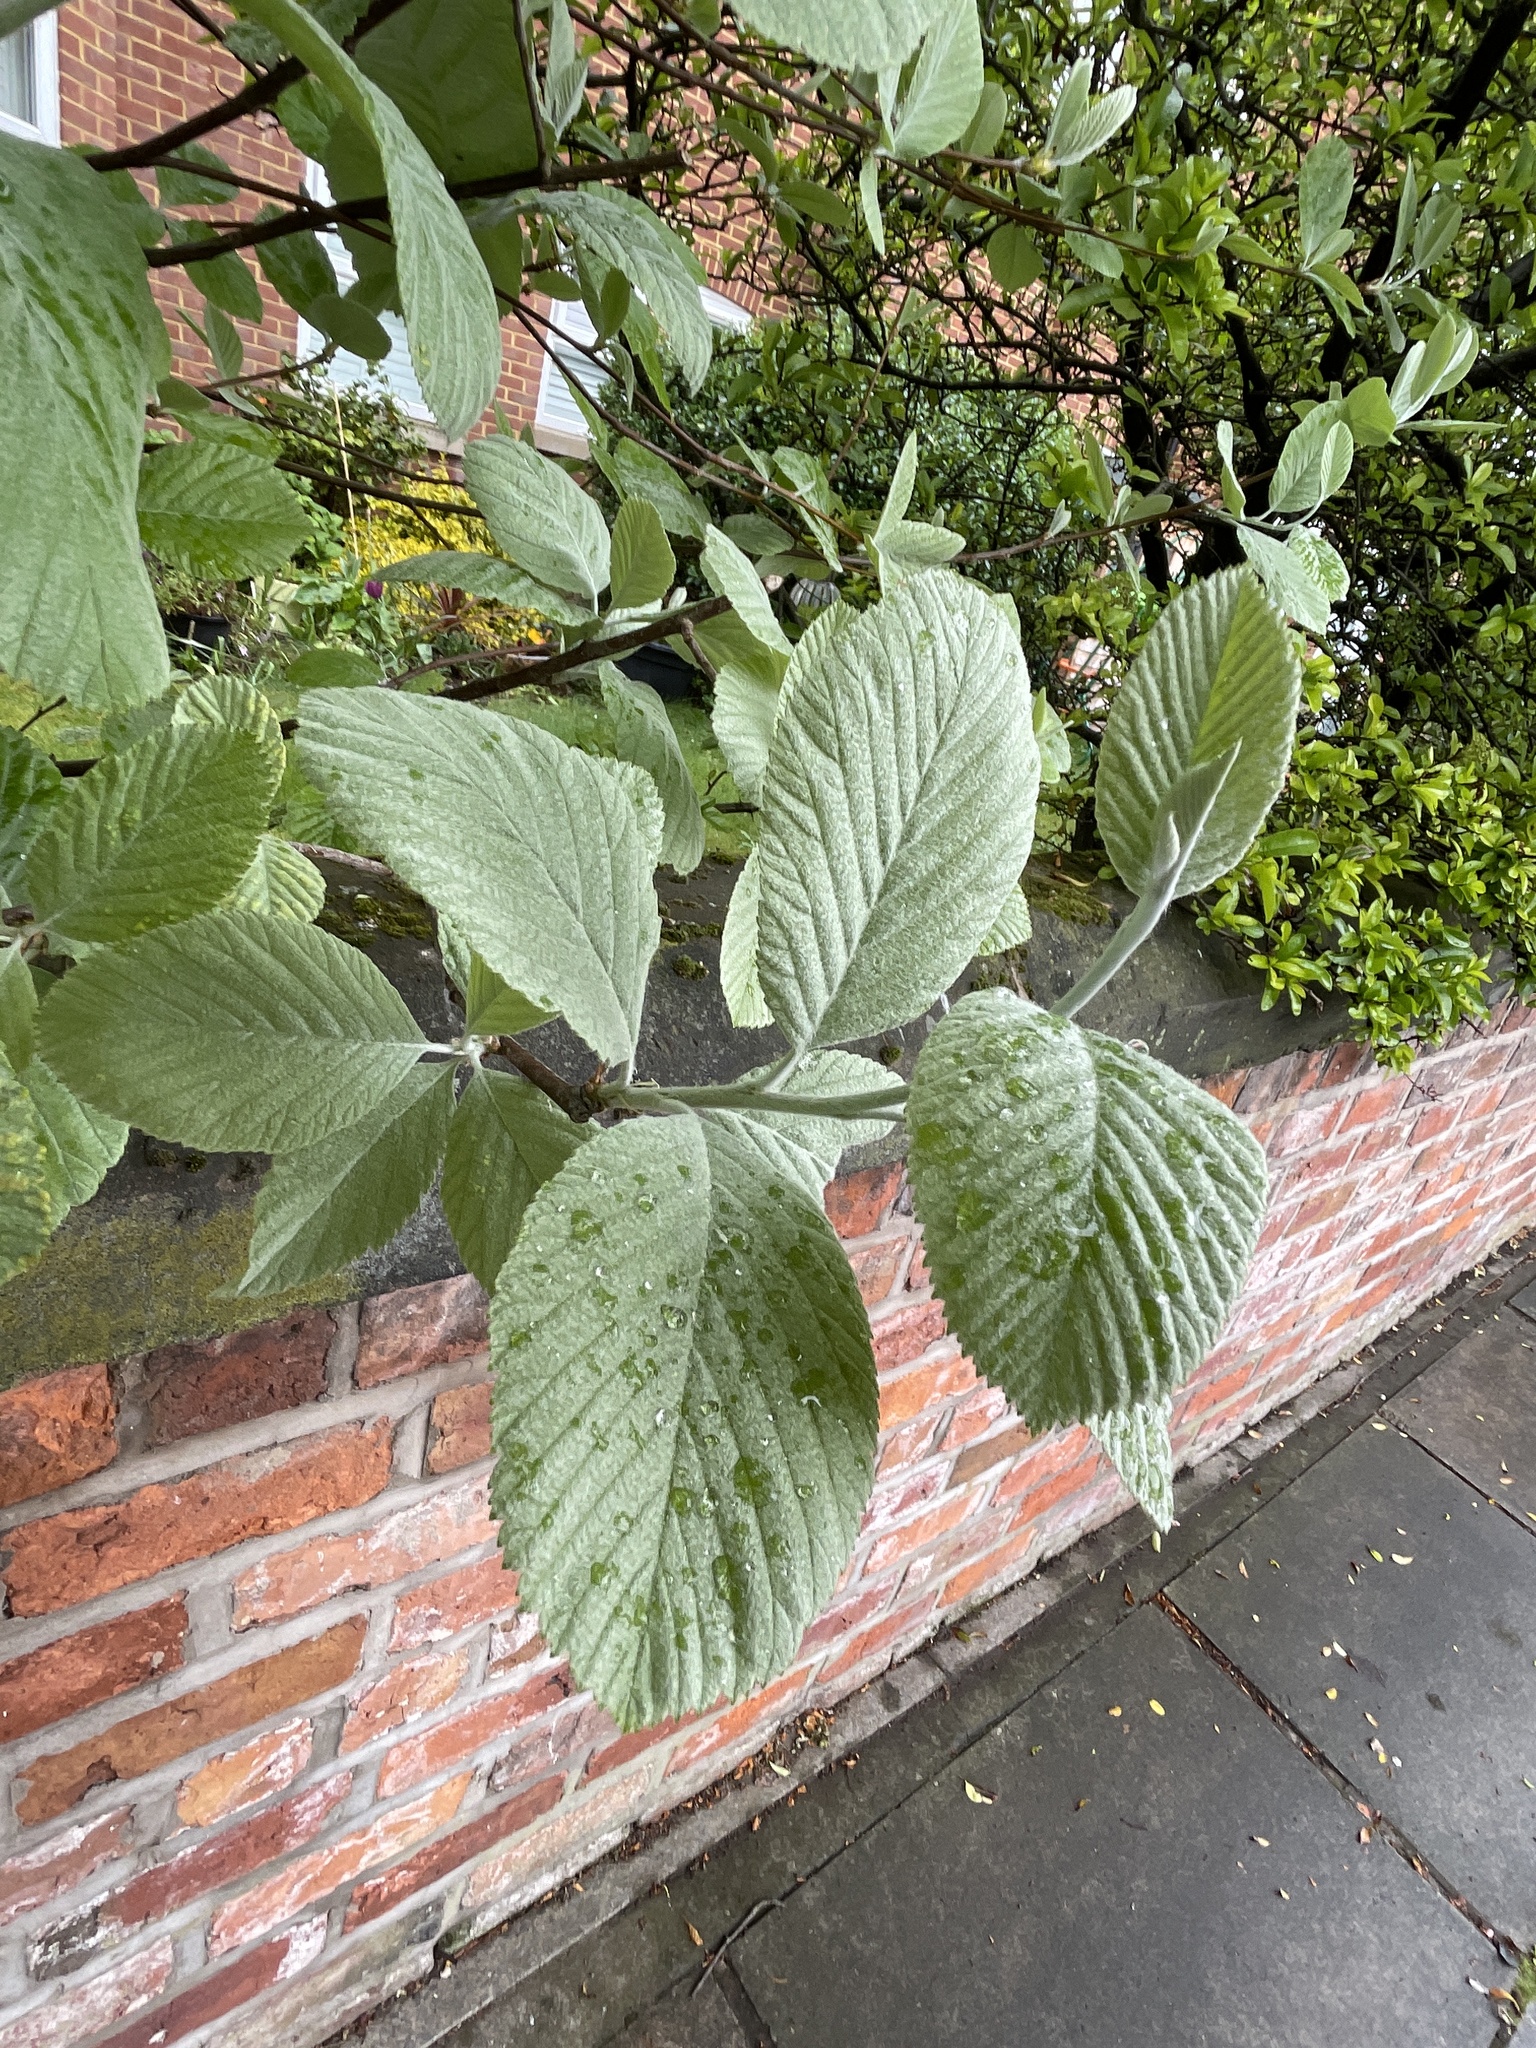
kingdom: Plantae
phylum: Tracheophyta
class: Magnoliopsida
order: Rosales
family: Rosaceae
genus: Aria
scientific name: Aria edulis
